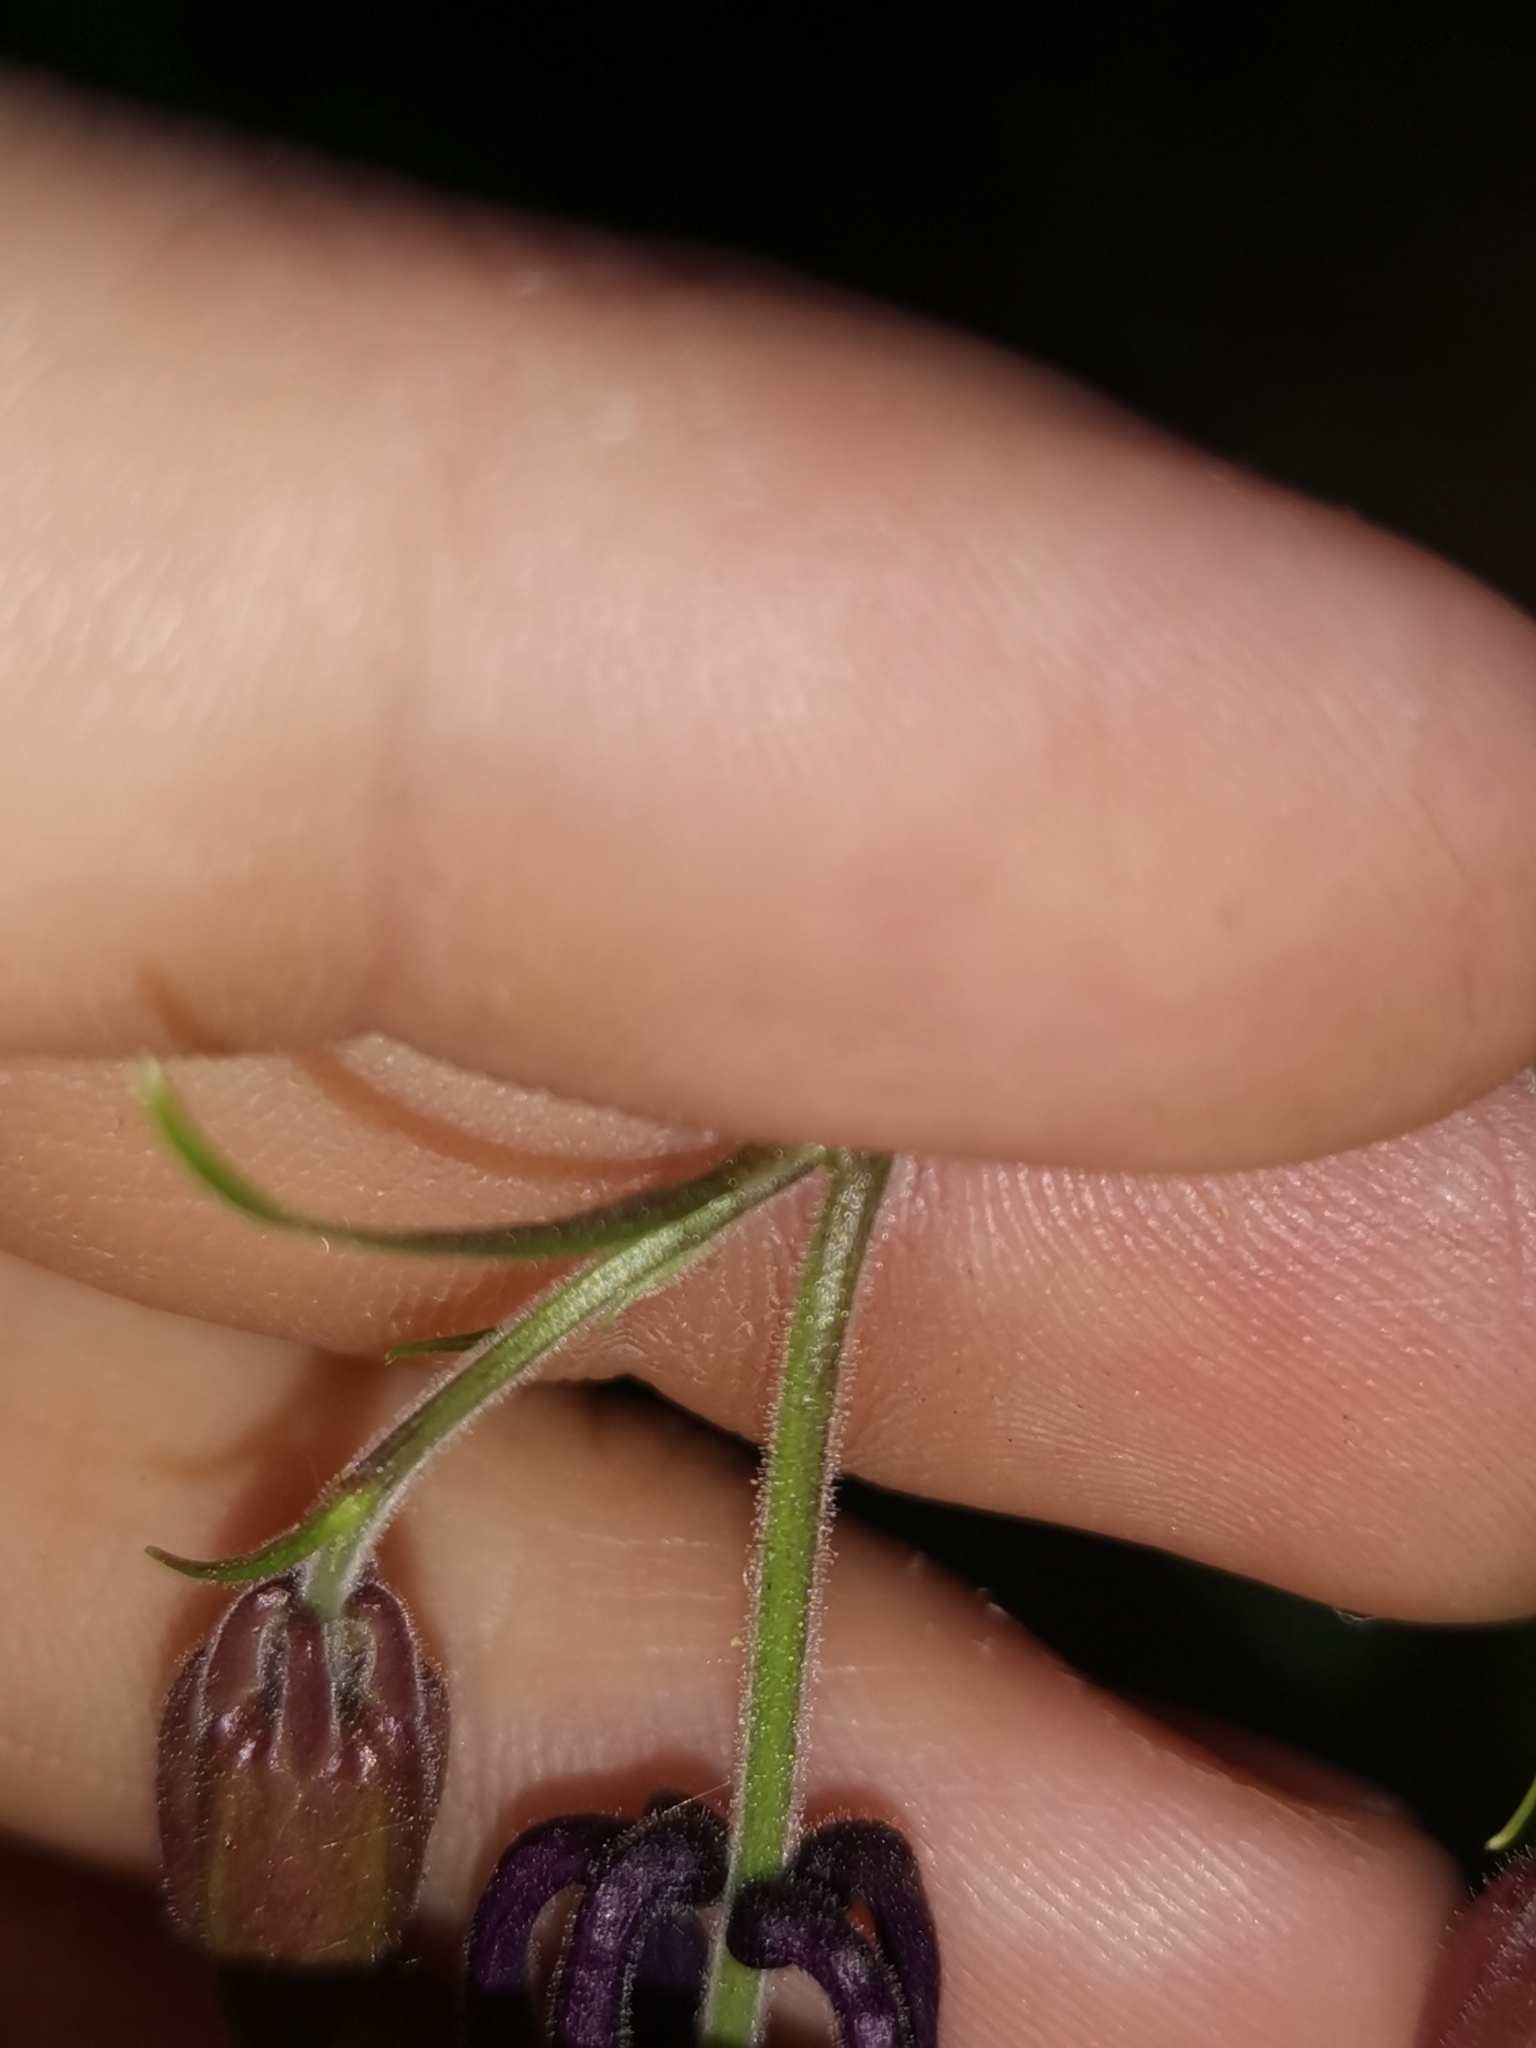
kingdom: Plantae
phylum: Tracheophyta
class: Magnoliopsida
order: Ranunculales
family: Ranunculaceae
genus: Aquilegia
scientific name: Aquilegia nigricans
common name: Bulgarian columbine
